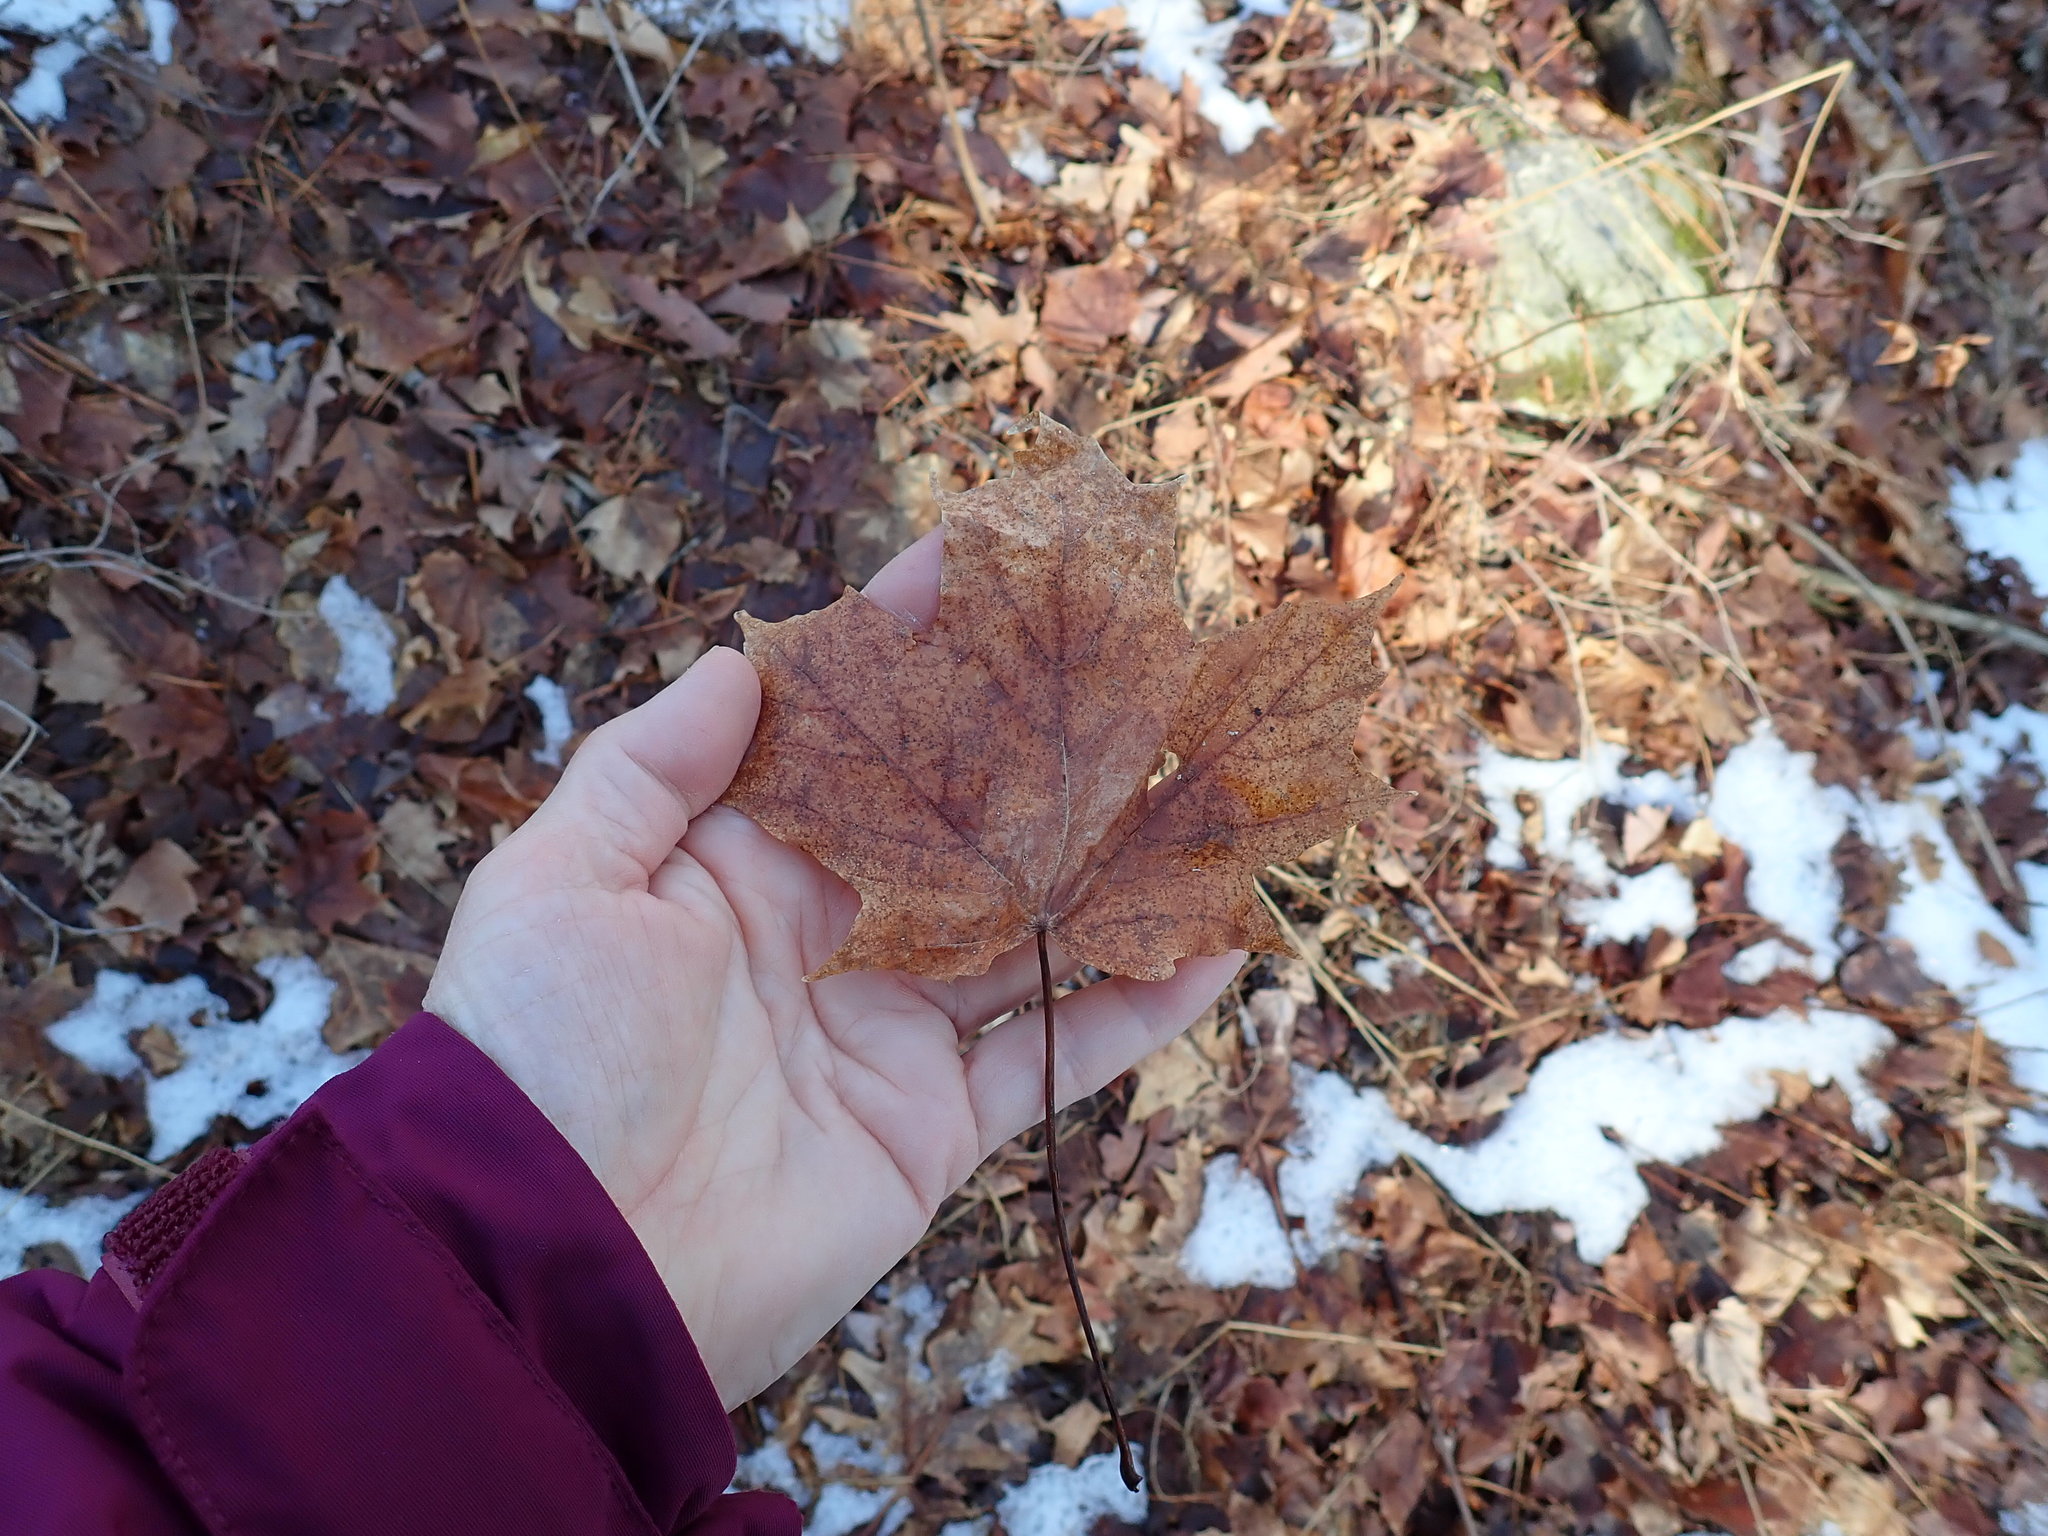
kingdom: Plantae
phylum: Tracheophyta
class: Magnoliopsida
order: Sapindales
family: Sapindaceae
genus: Acer
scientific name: Acer saccharum
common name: Sugar maple
